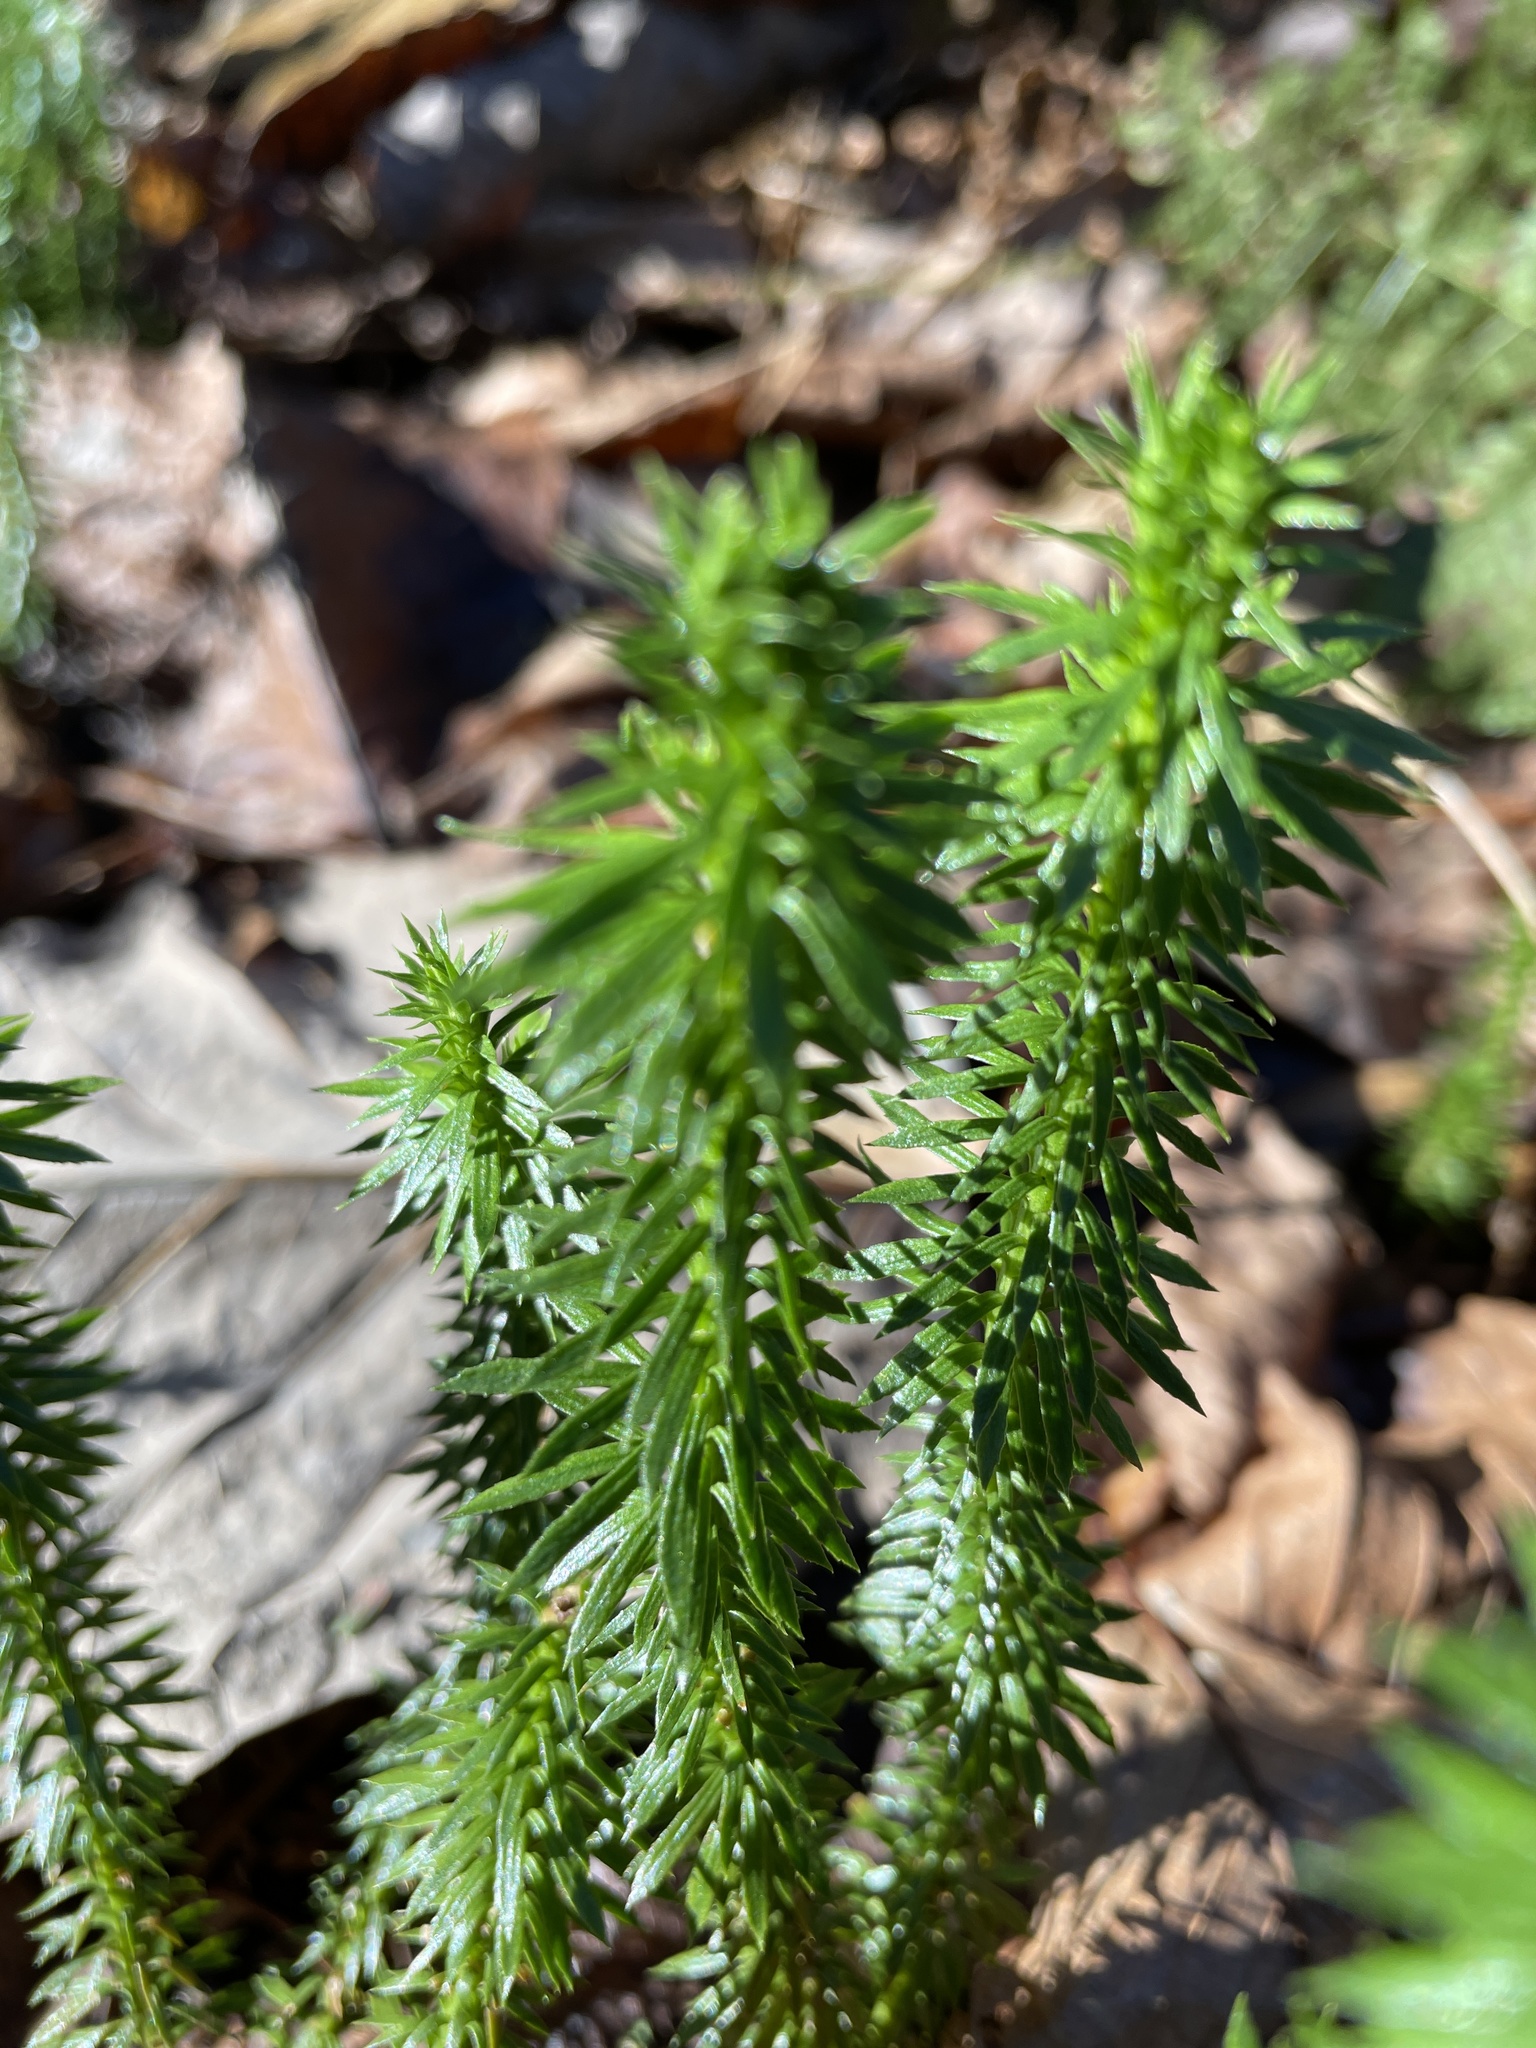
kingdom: Plantae
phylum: Tracheophyta
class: Lycopodiopsida
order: Lycopodiales
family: Lycopodiaceae
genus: Huperzia
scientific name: Huperzia lucidula
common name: Shining clubmoss
